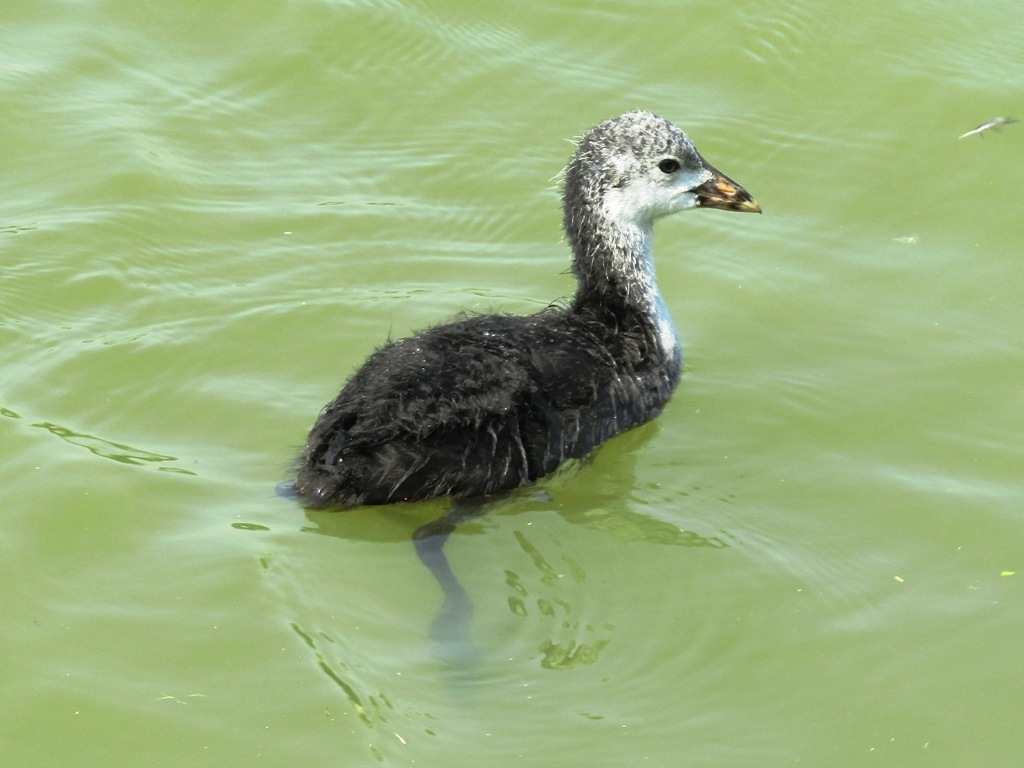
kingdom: Animalia
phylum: Chordata
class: Aves
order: Gruiformes
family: Rallidae
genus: Fulica
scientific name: Fulica atra
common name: Eurasian coot
